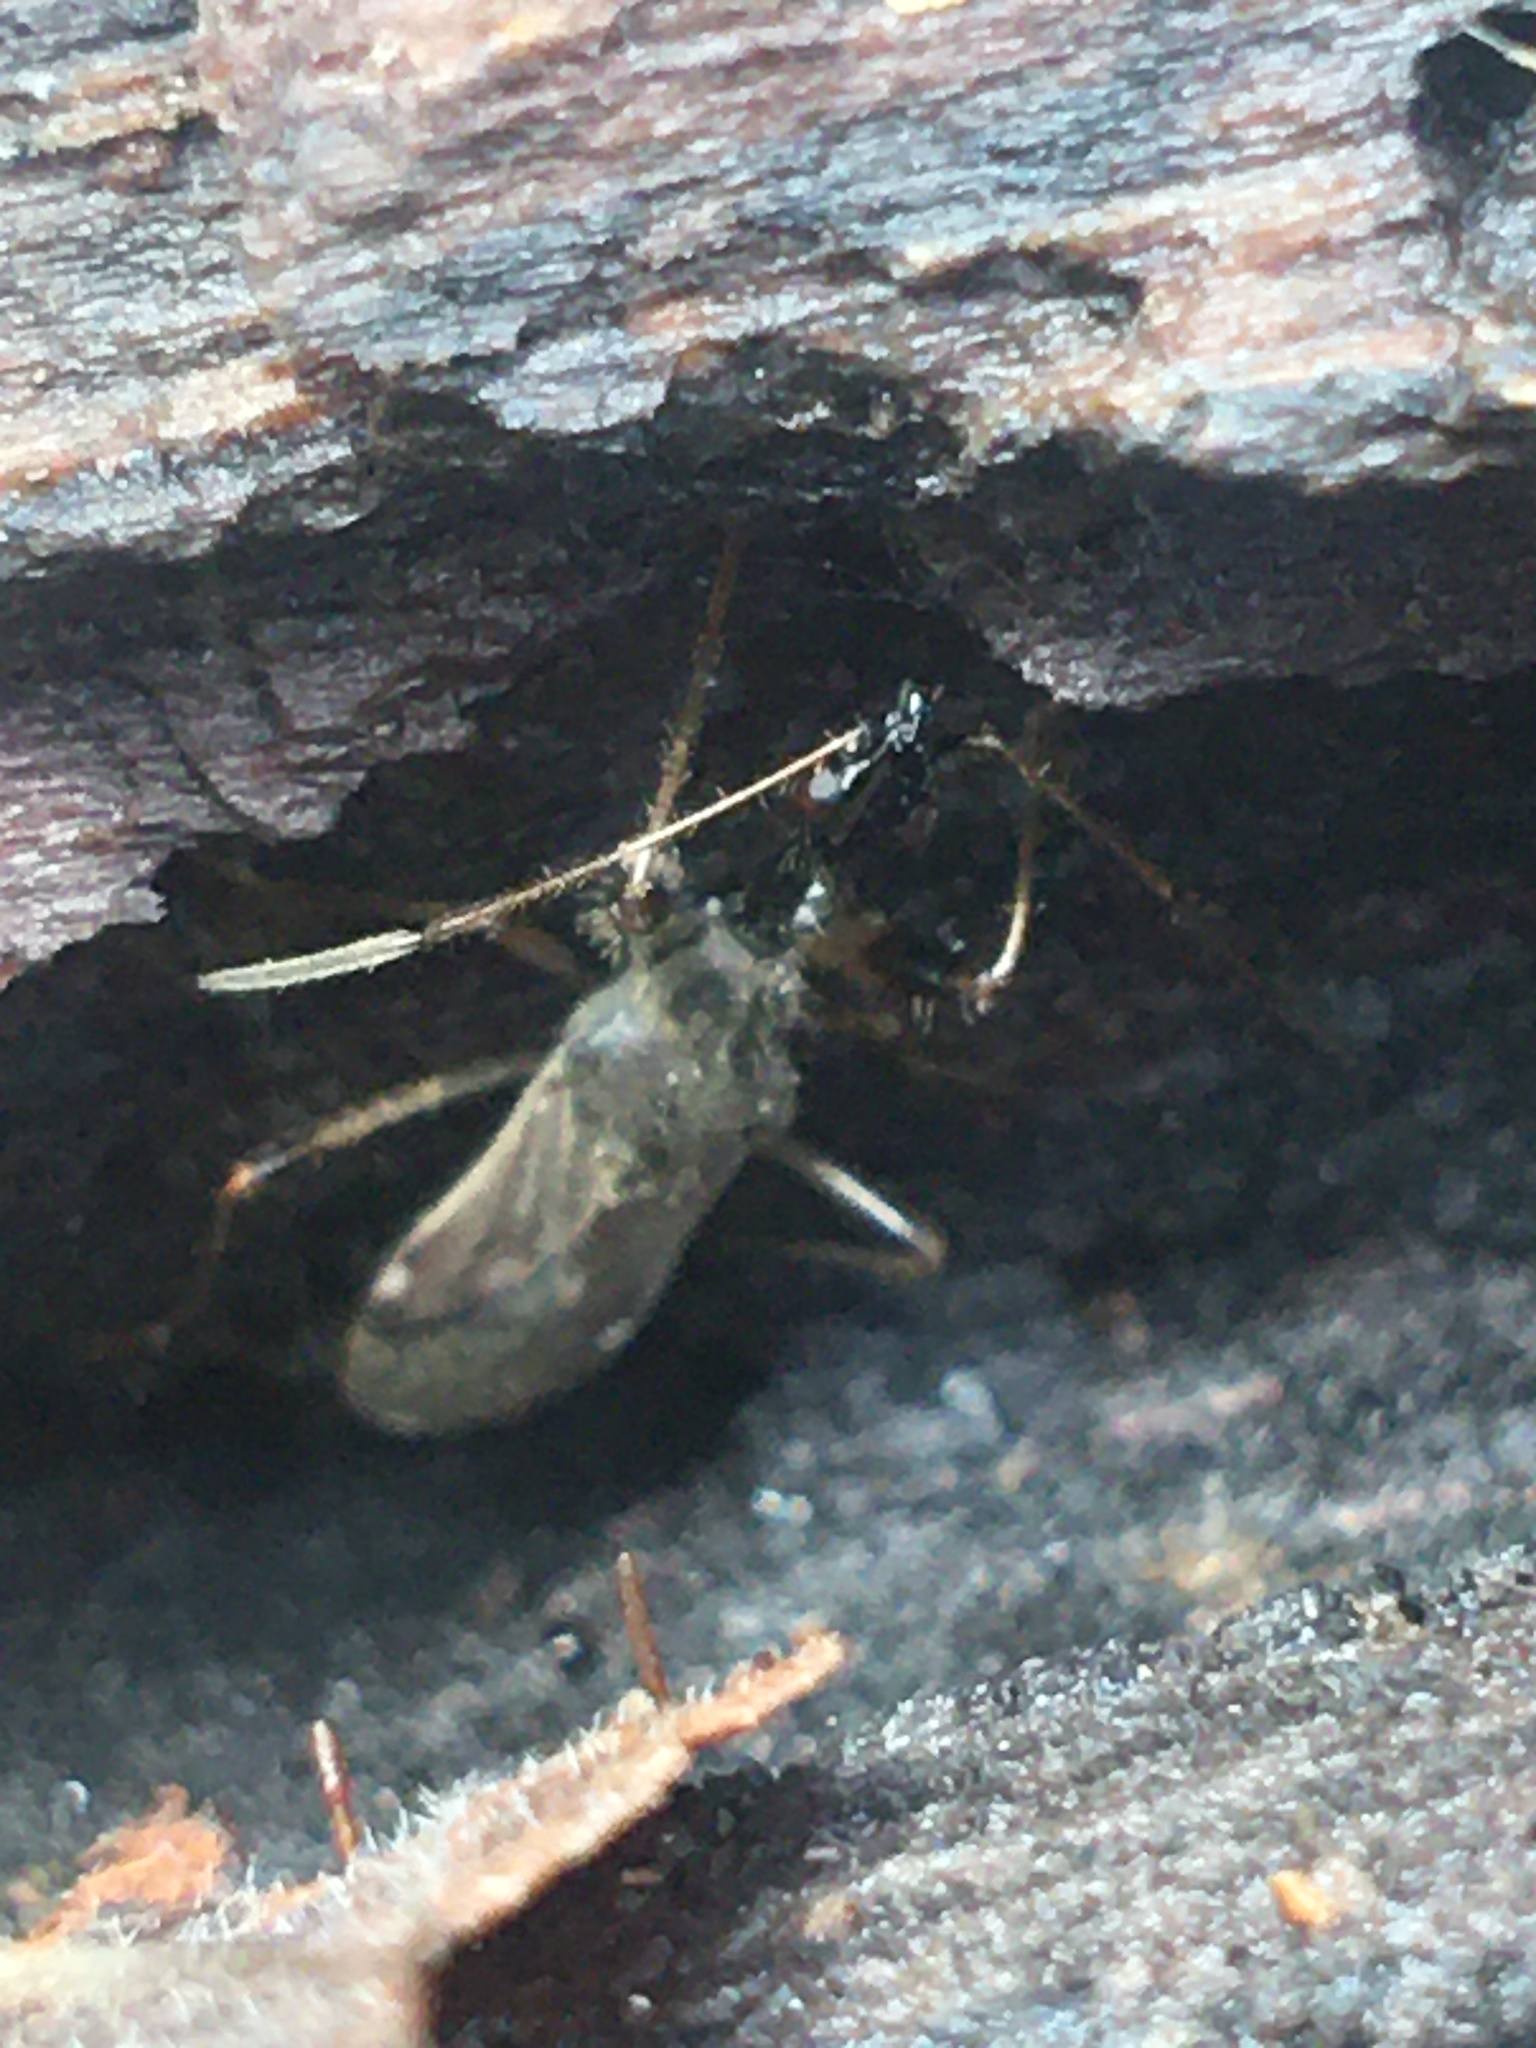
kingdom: Animalia
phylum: Arthropoda
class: Insecta
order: Hemiptera
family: Rhyparochromidae
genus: Myodocha
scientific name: Myodocha serripes
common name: Long-necked seed bug
